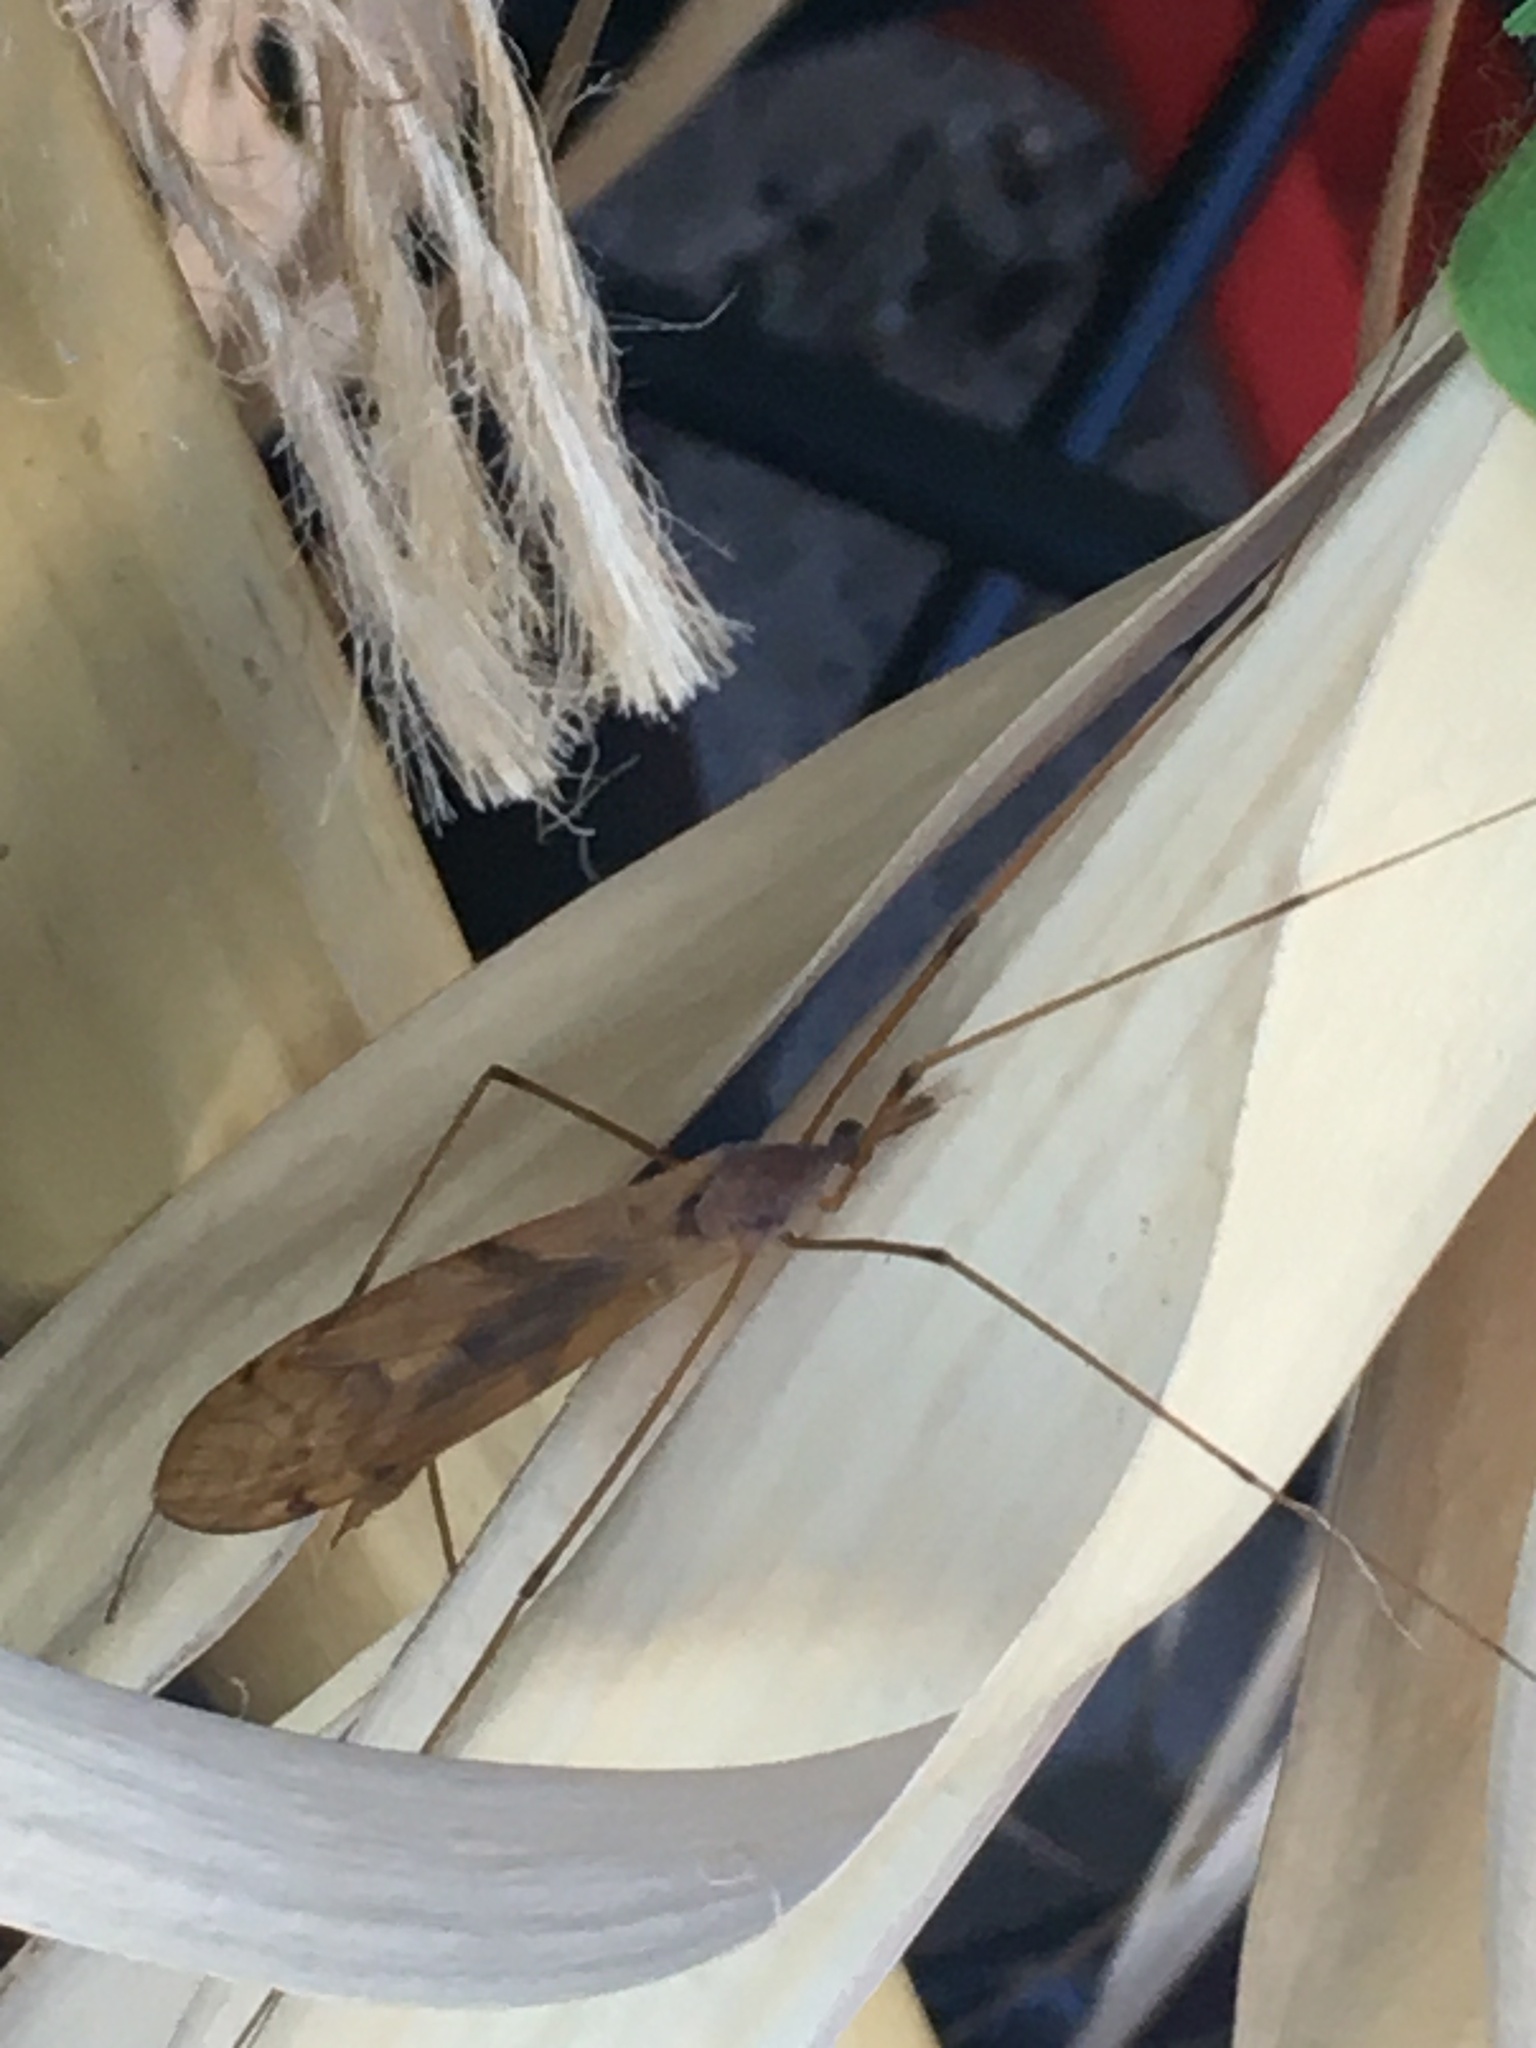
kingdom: Animalia
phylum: Arthropoda
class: Insecta
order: Diptera
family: Tipulidae
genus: Tipula
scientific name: Tipula
